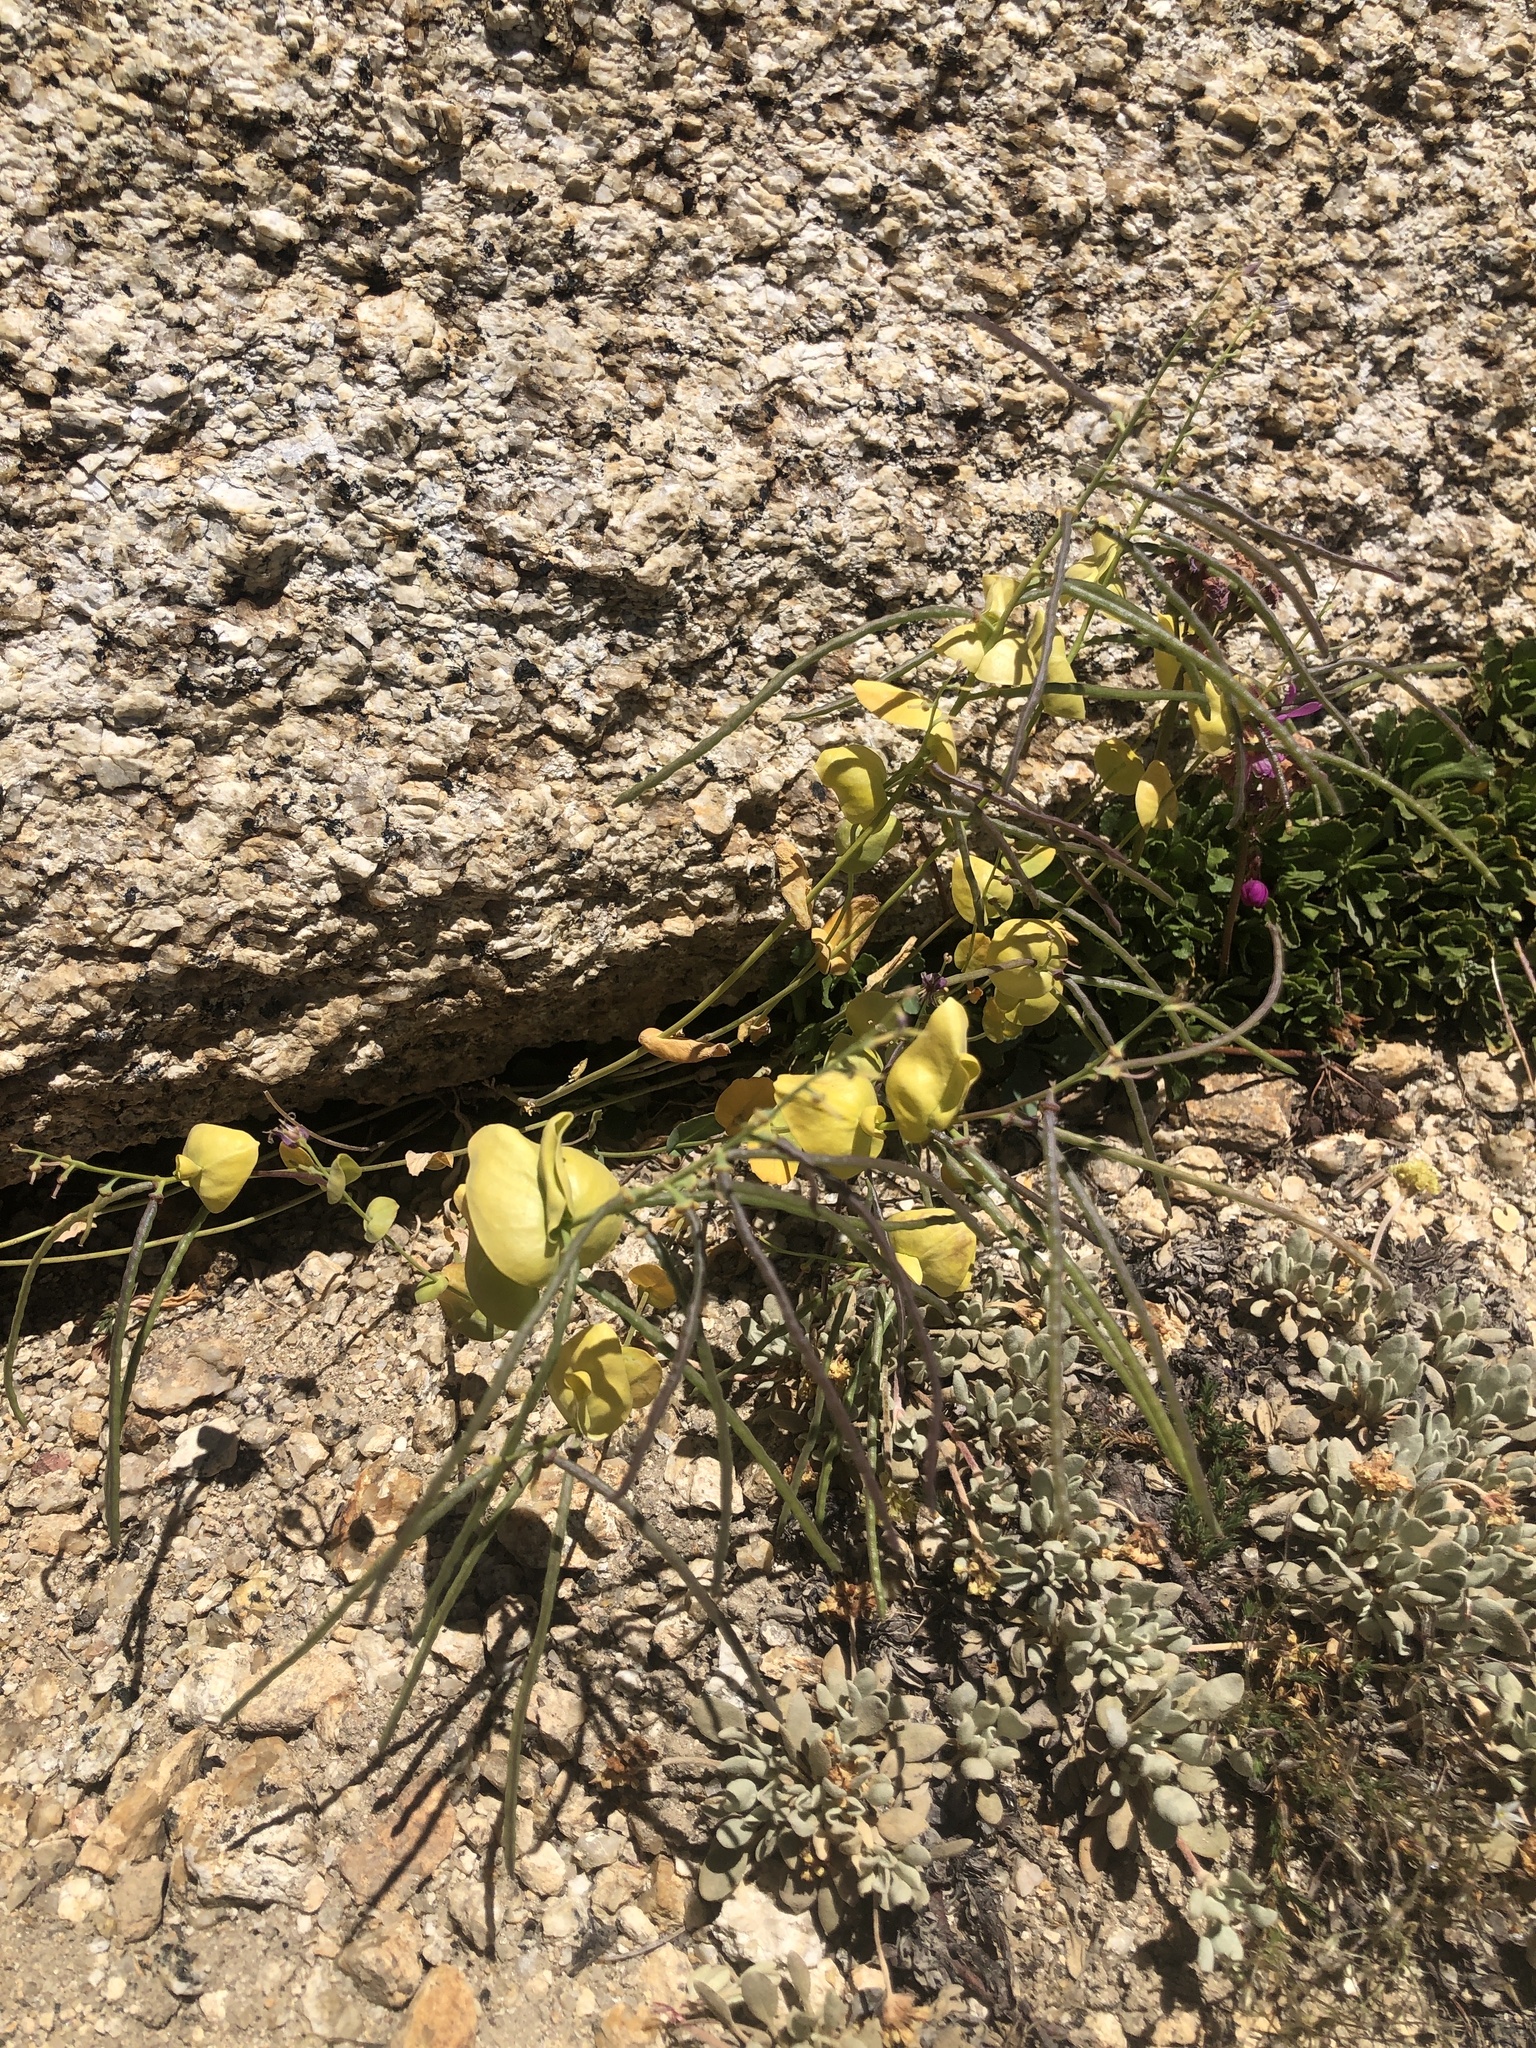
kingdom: Plantae
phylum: Tracheophyta
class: Magnoliopsida
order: Brassicales
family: Brassicaceae
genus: Streptanthus
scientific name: Streptanthus tortuosus
